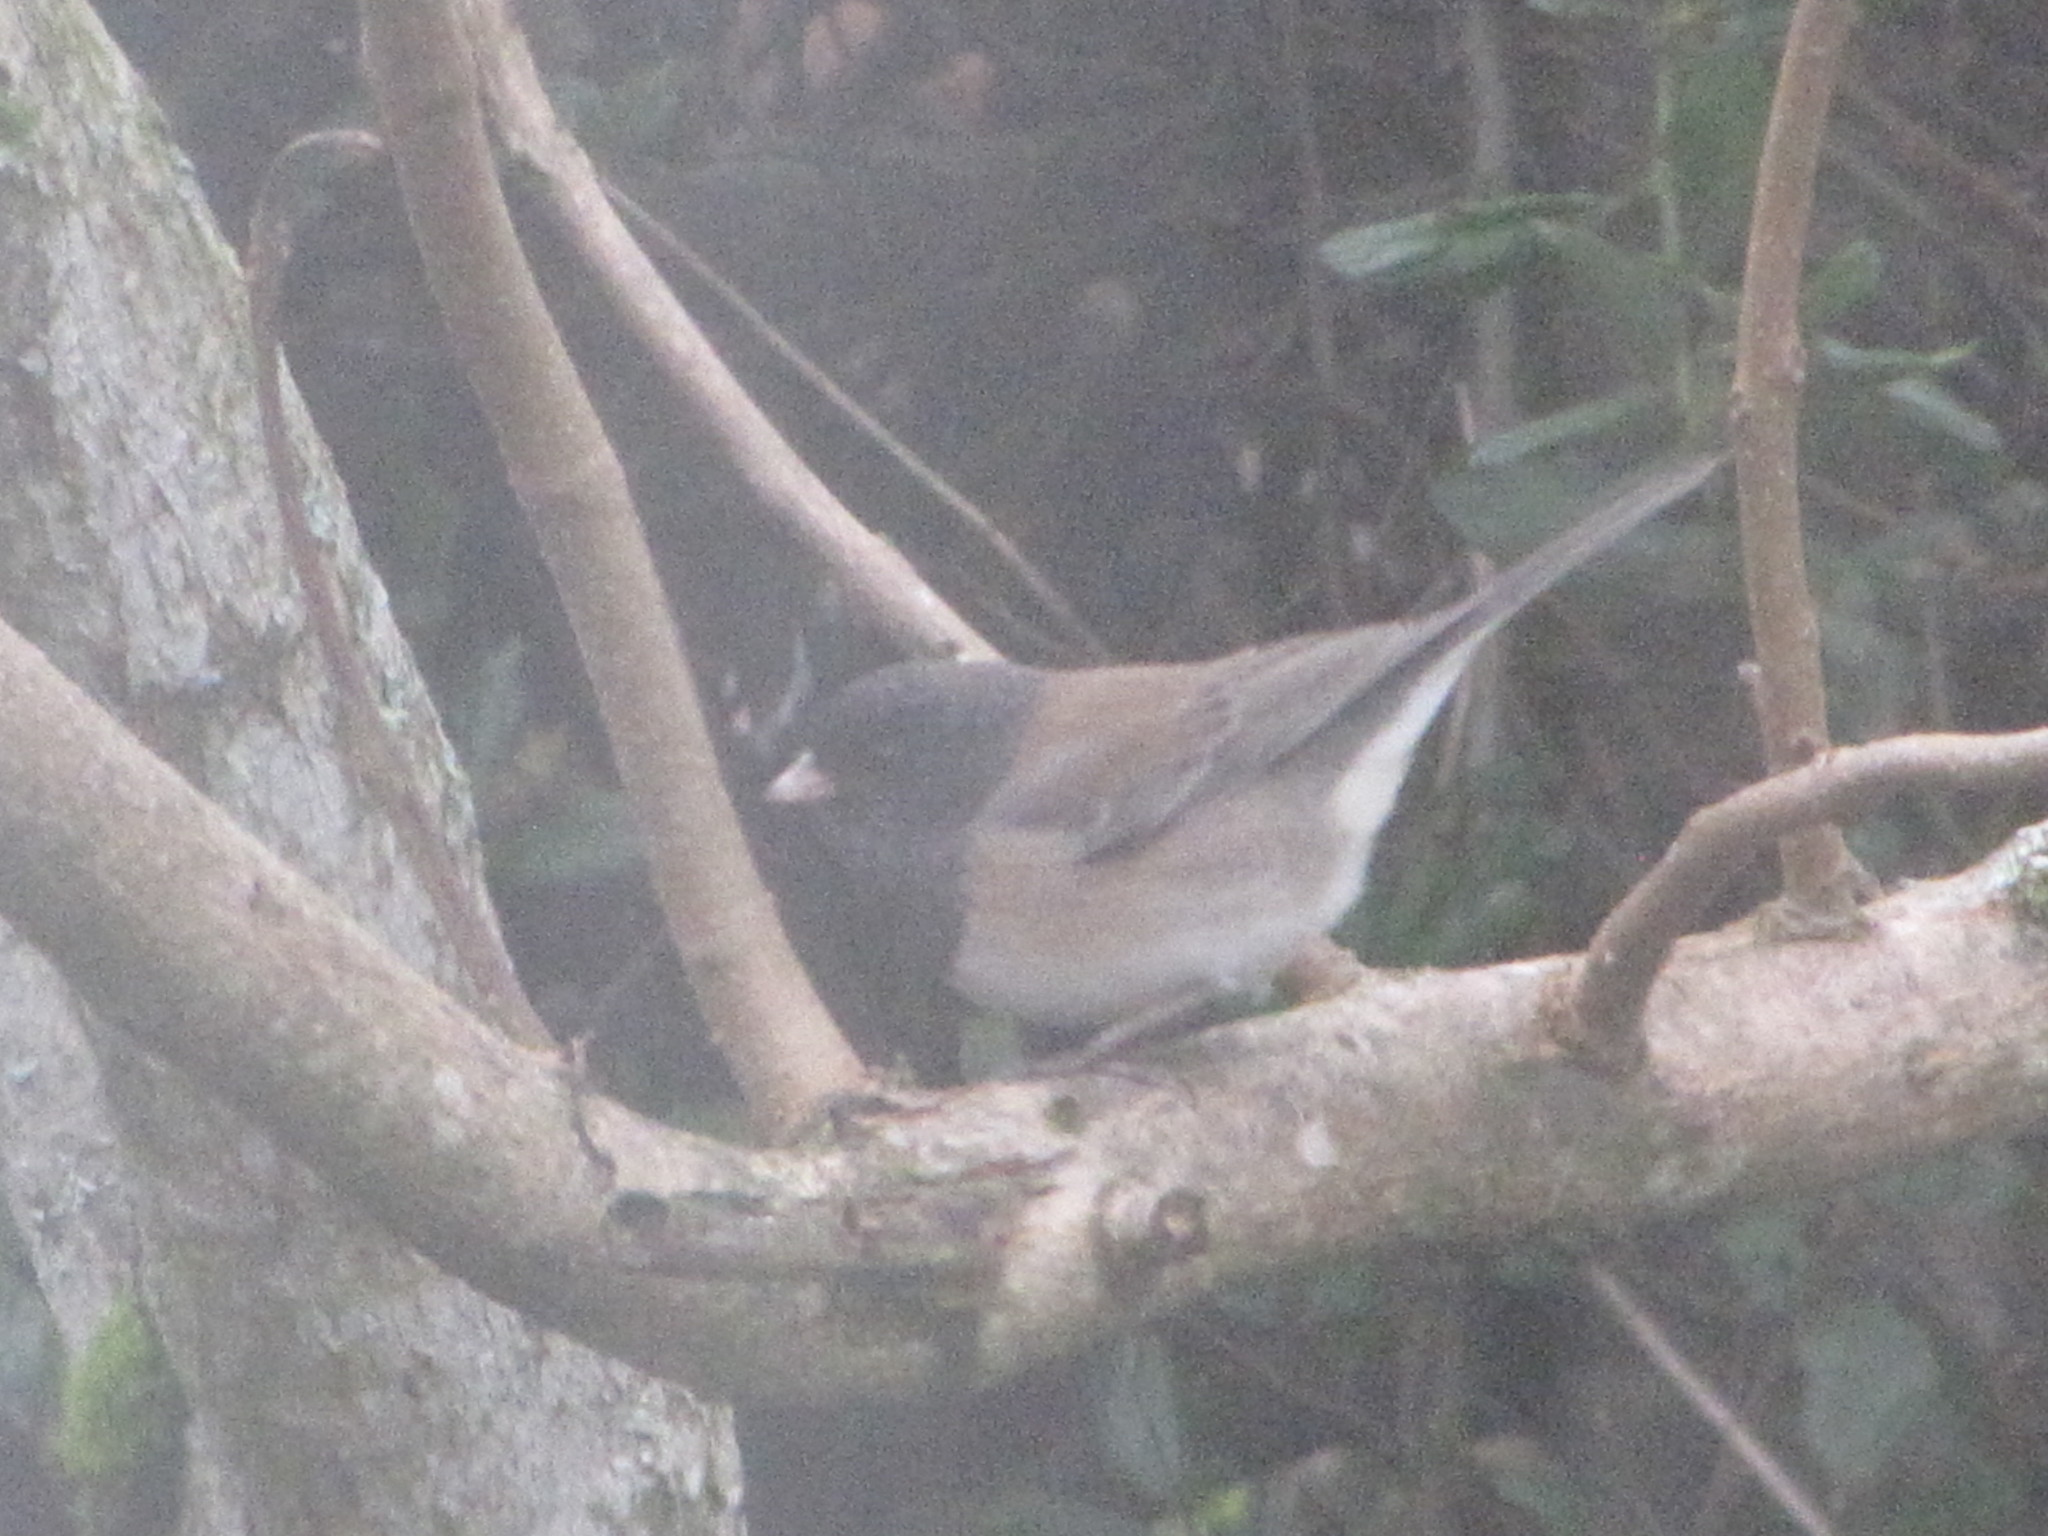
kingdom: Animalia
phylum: Chordata
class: Aves
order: Passeriformes
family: Passerellidae
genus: Junco
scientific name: Junco hyemalis
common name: Dark-eyed junco
